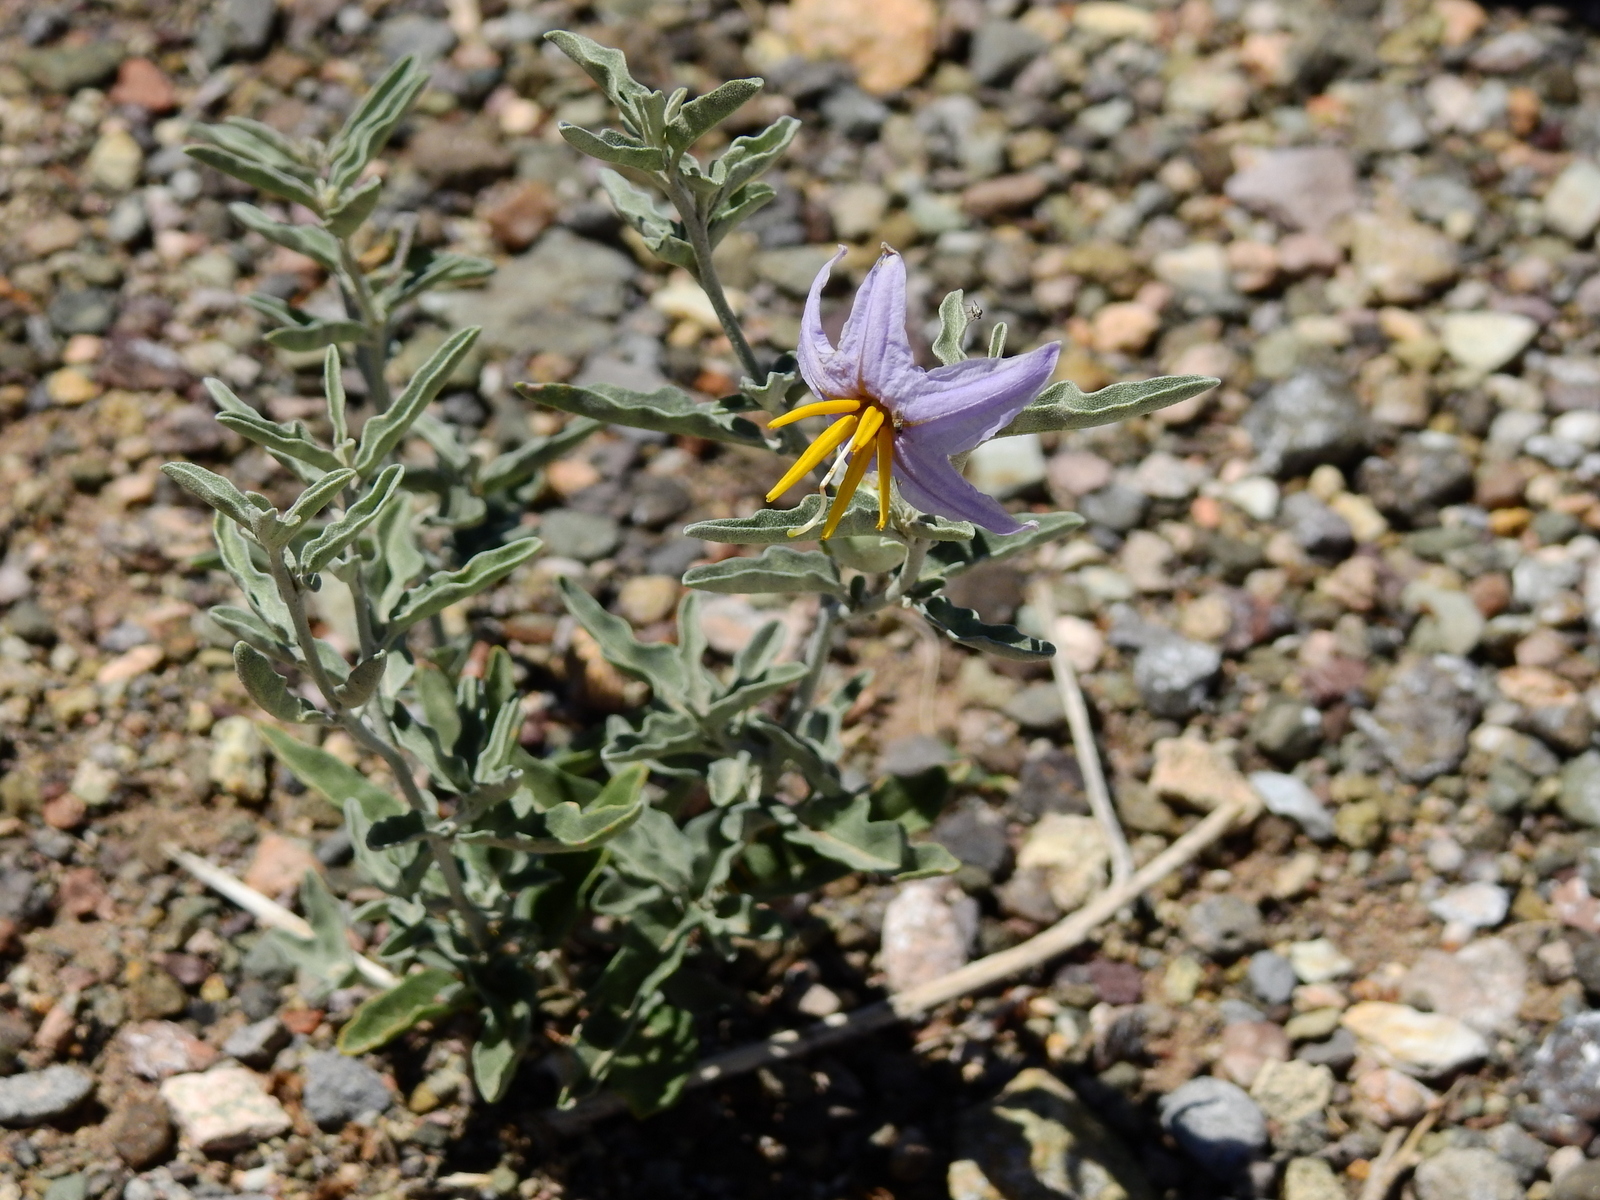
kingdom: Plantae
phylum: Tracheophyta
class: Magnoliopsida
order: Solanales
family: Solanaceae
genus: Solanum
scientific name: Solanum elaeagnifolium
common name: Silverleaf nightshade
